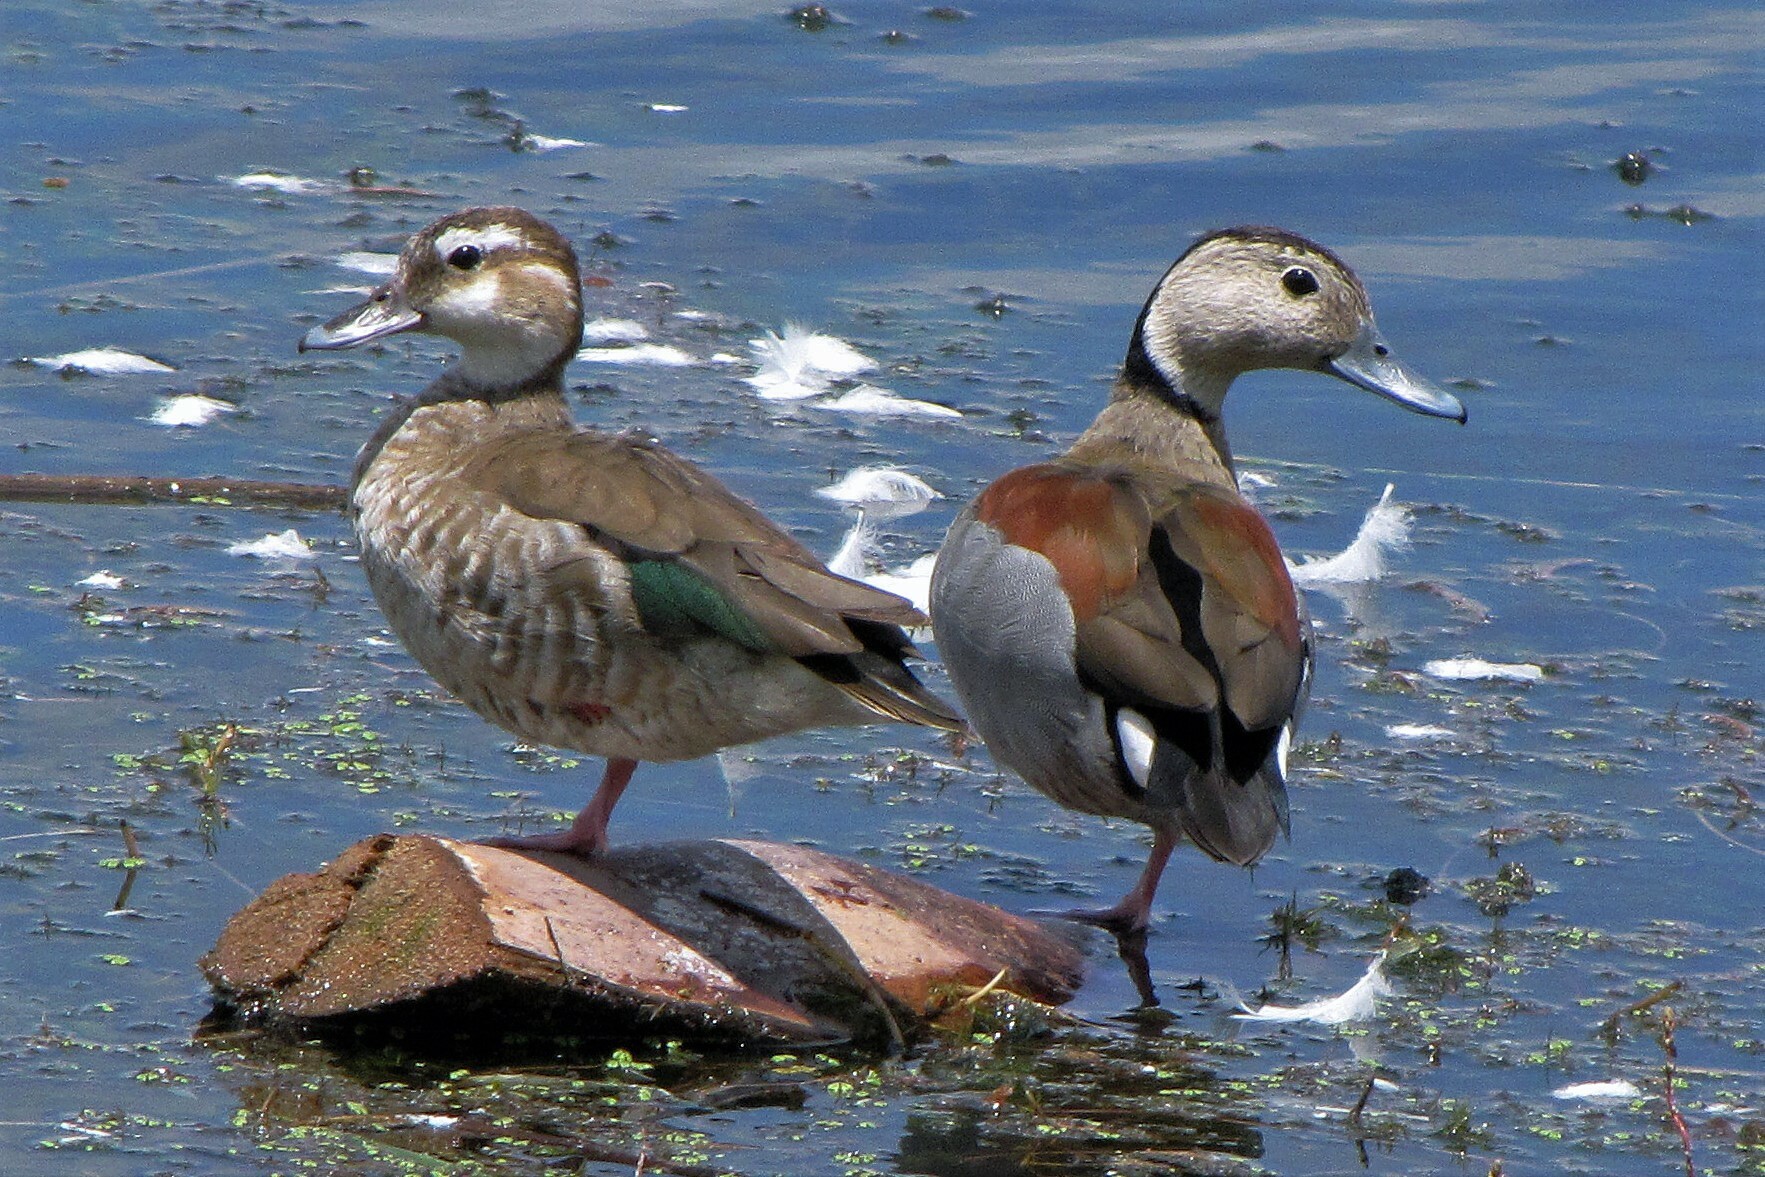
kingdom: Animalia
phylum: Chordata
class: Aves
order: Anseriformes
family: Anatidae
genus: Callonetta
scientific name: Callonetta leucophrys
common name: Ringed teal
